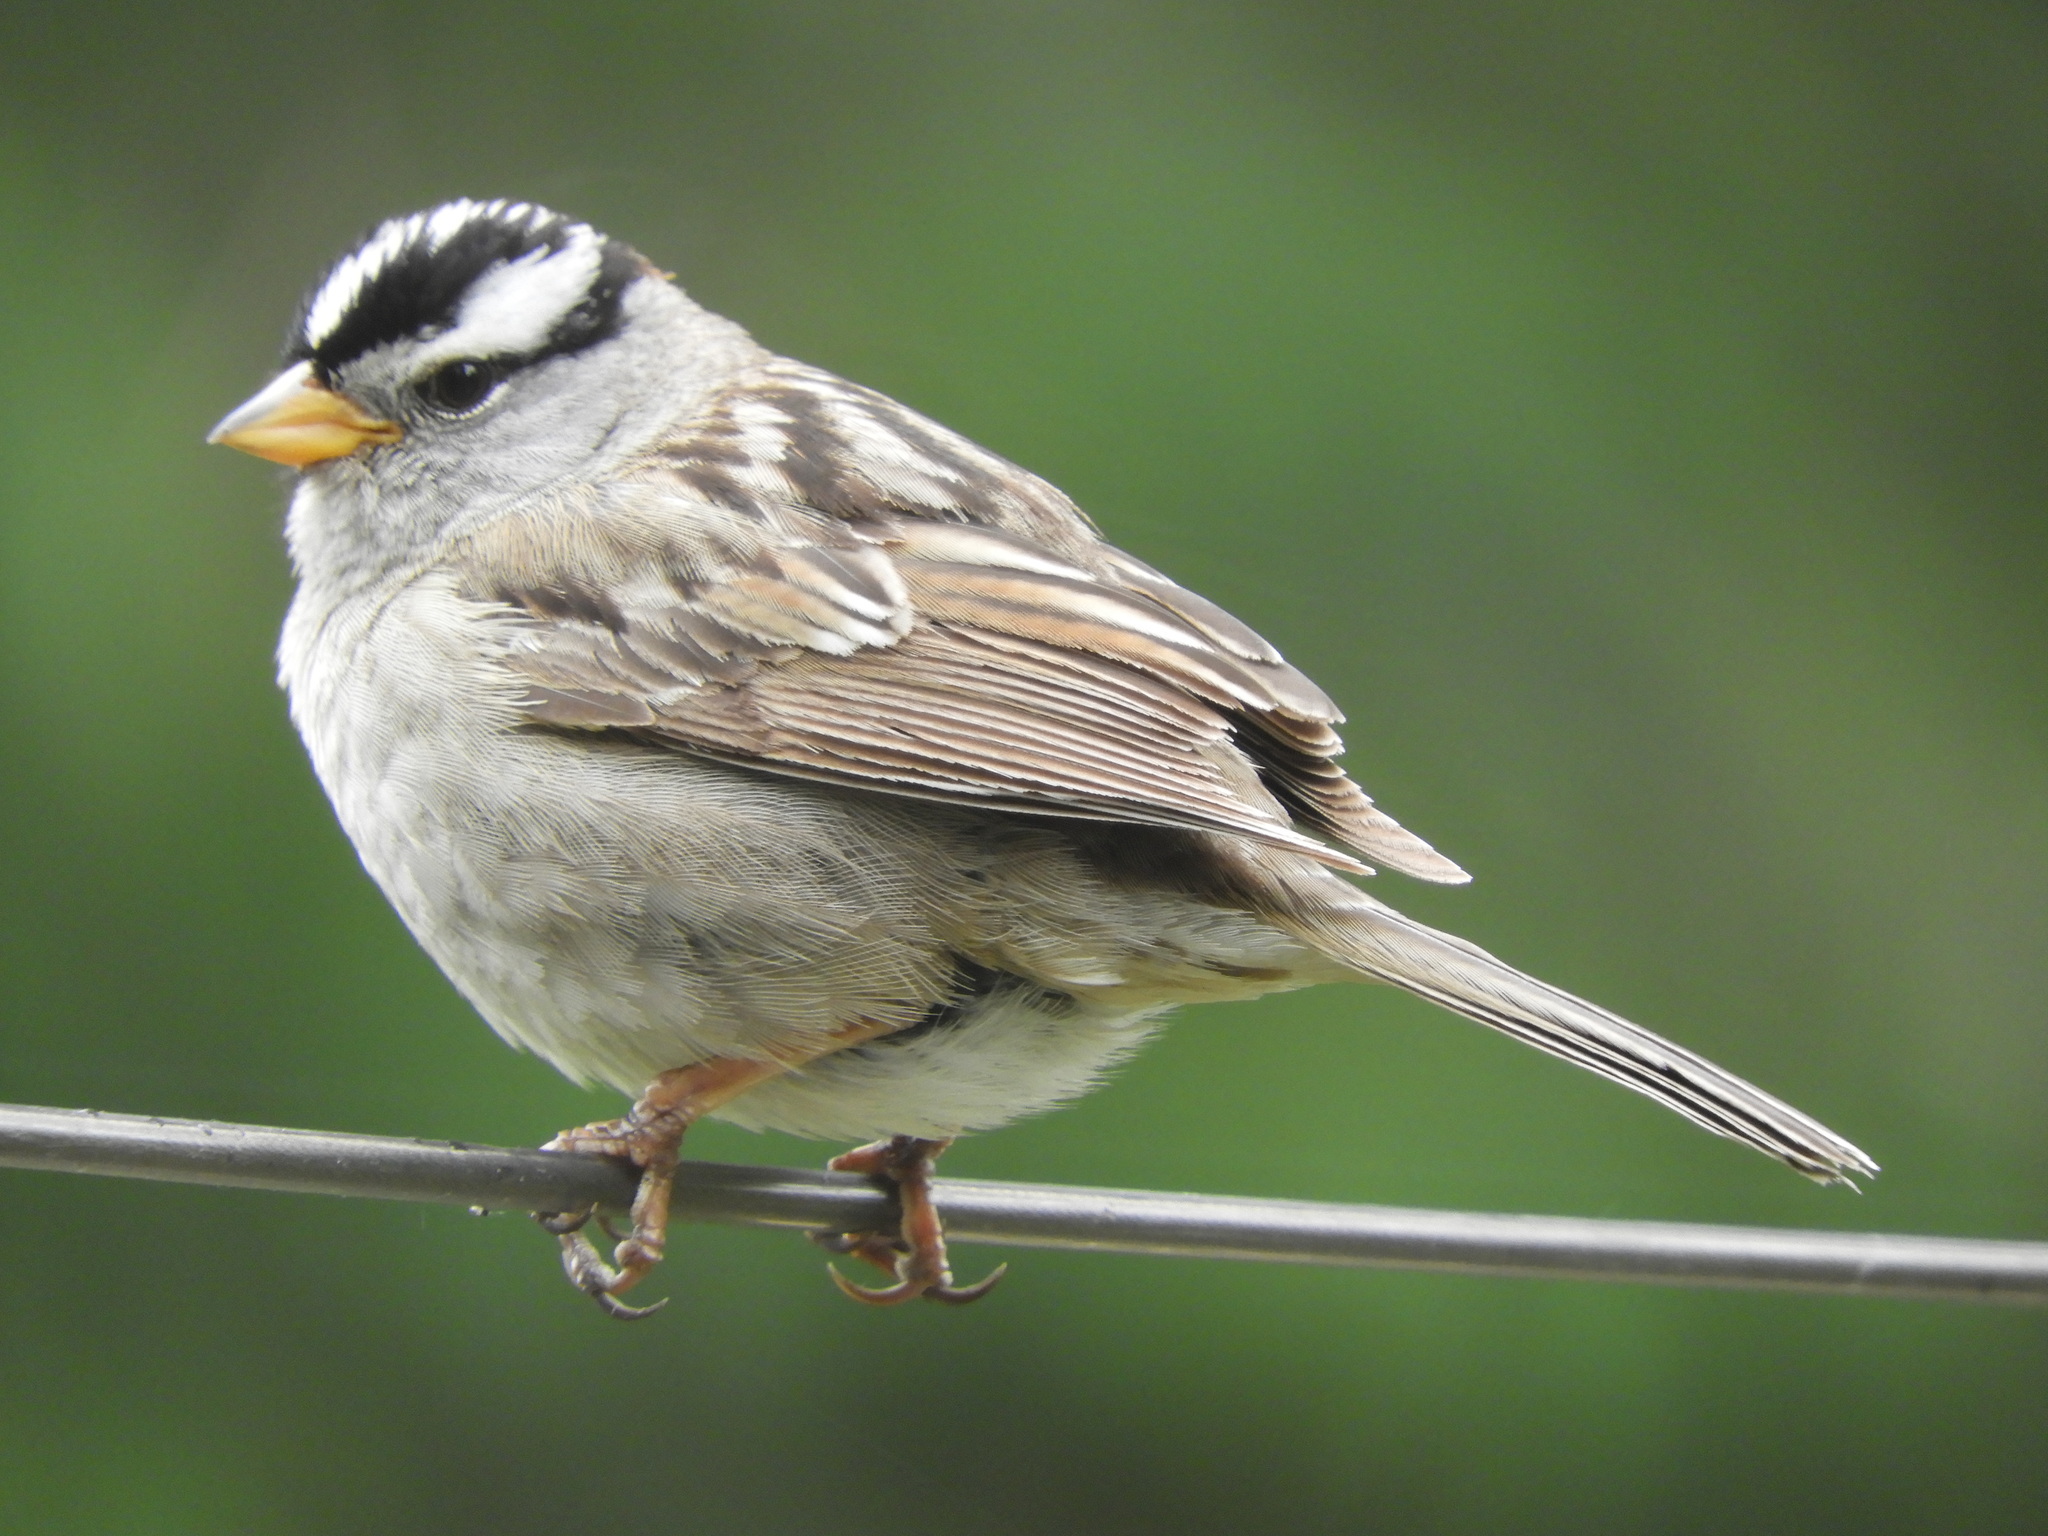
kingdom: Animalia
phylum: Chordata
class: Aves
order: Passeriformes
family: Passerellidae
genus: Zonotrichia
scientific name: Zonotrichia leucophrys
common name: White-crowned sparrow
